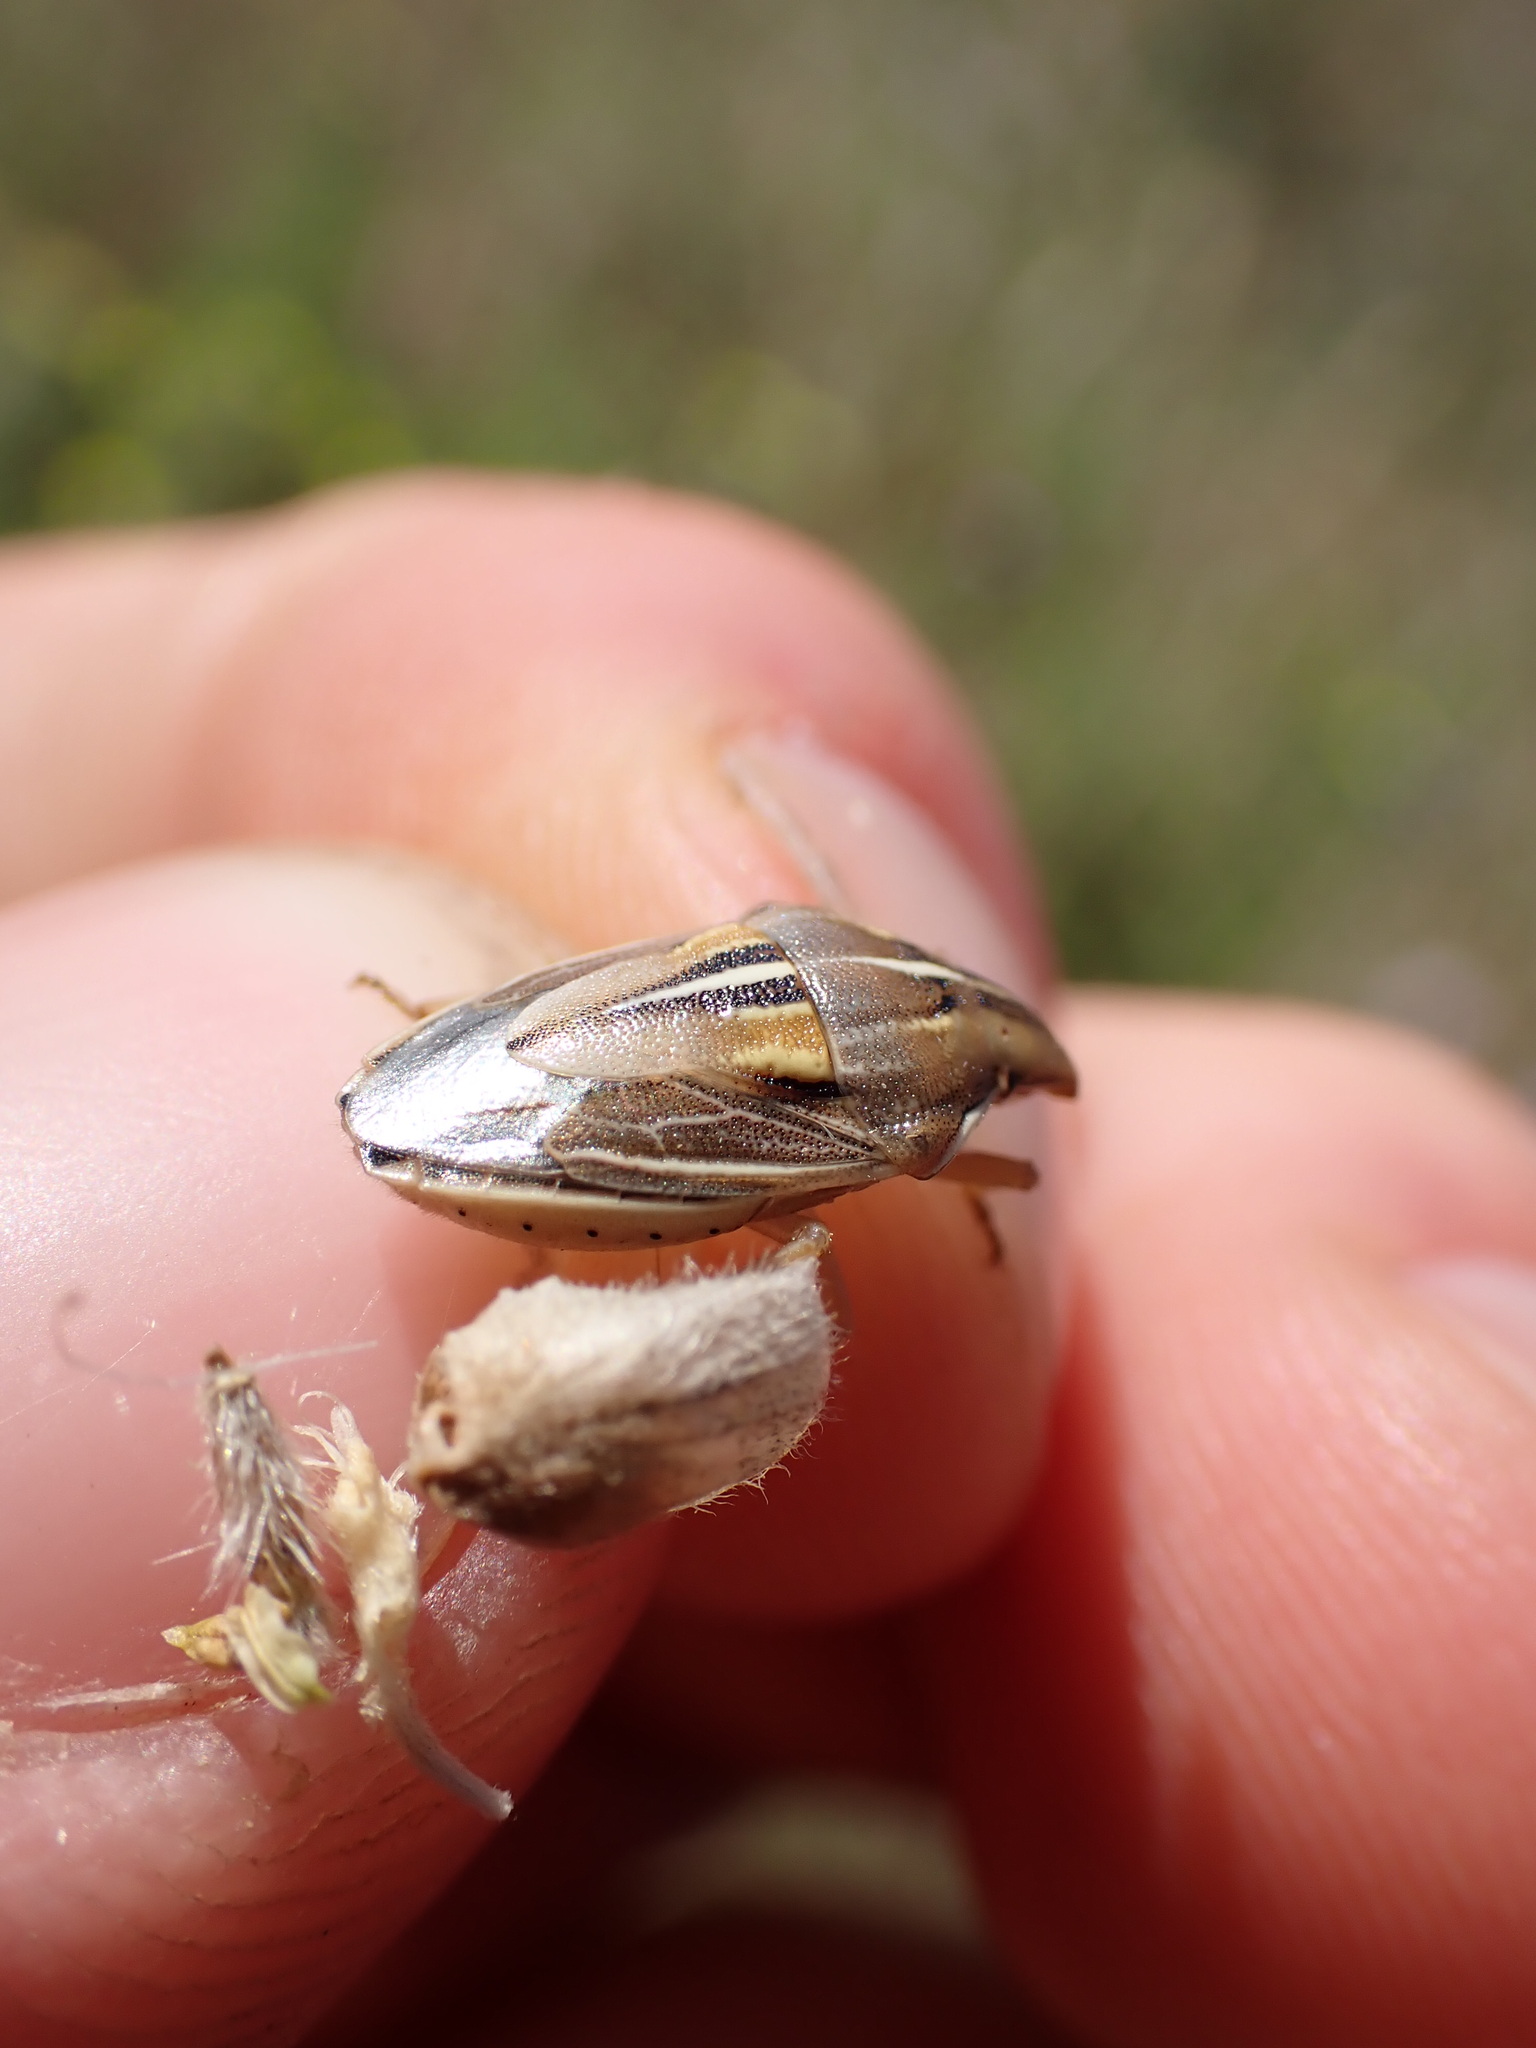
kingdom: Animalia
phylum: Arthropoda
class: Insecta
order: Hemiptera
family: Pentatomidae
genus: Aelia
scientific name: Aelia rostrata
